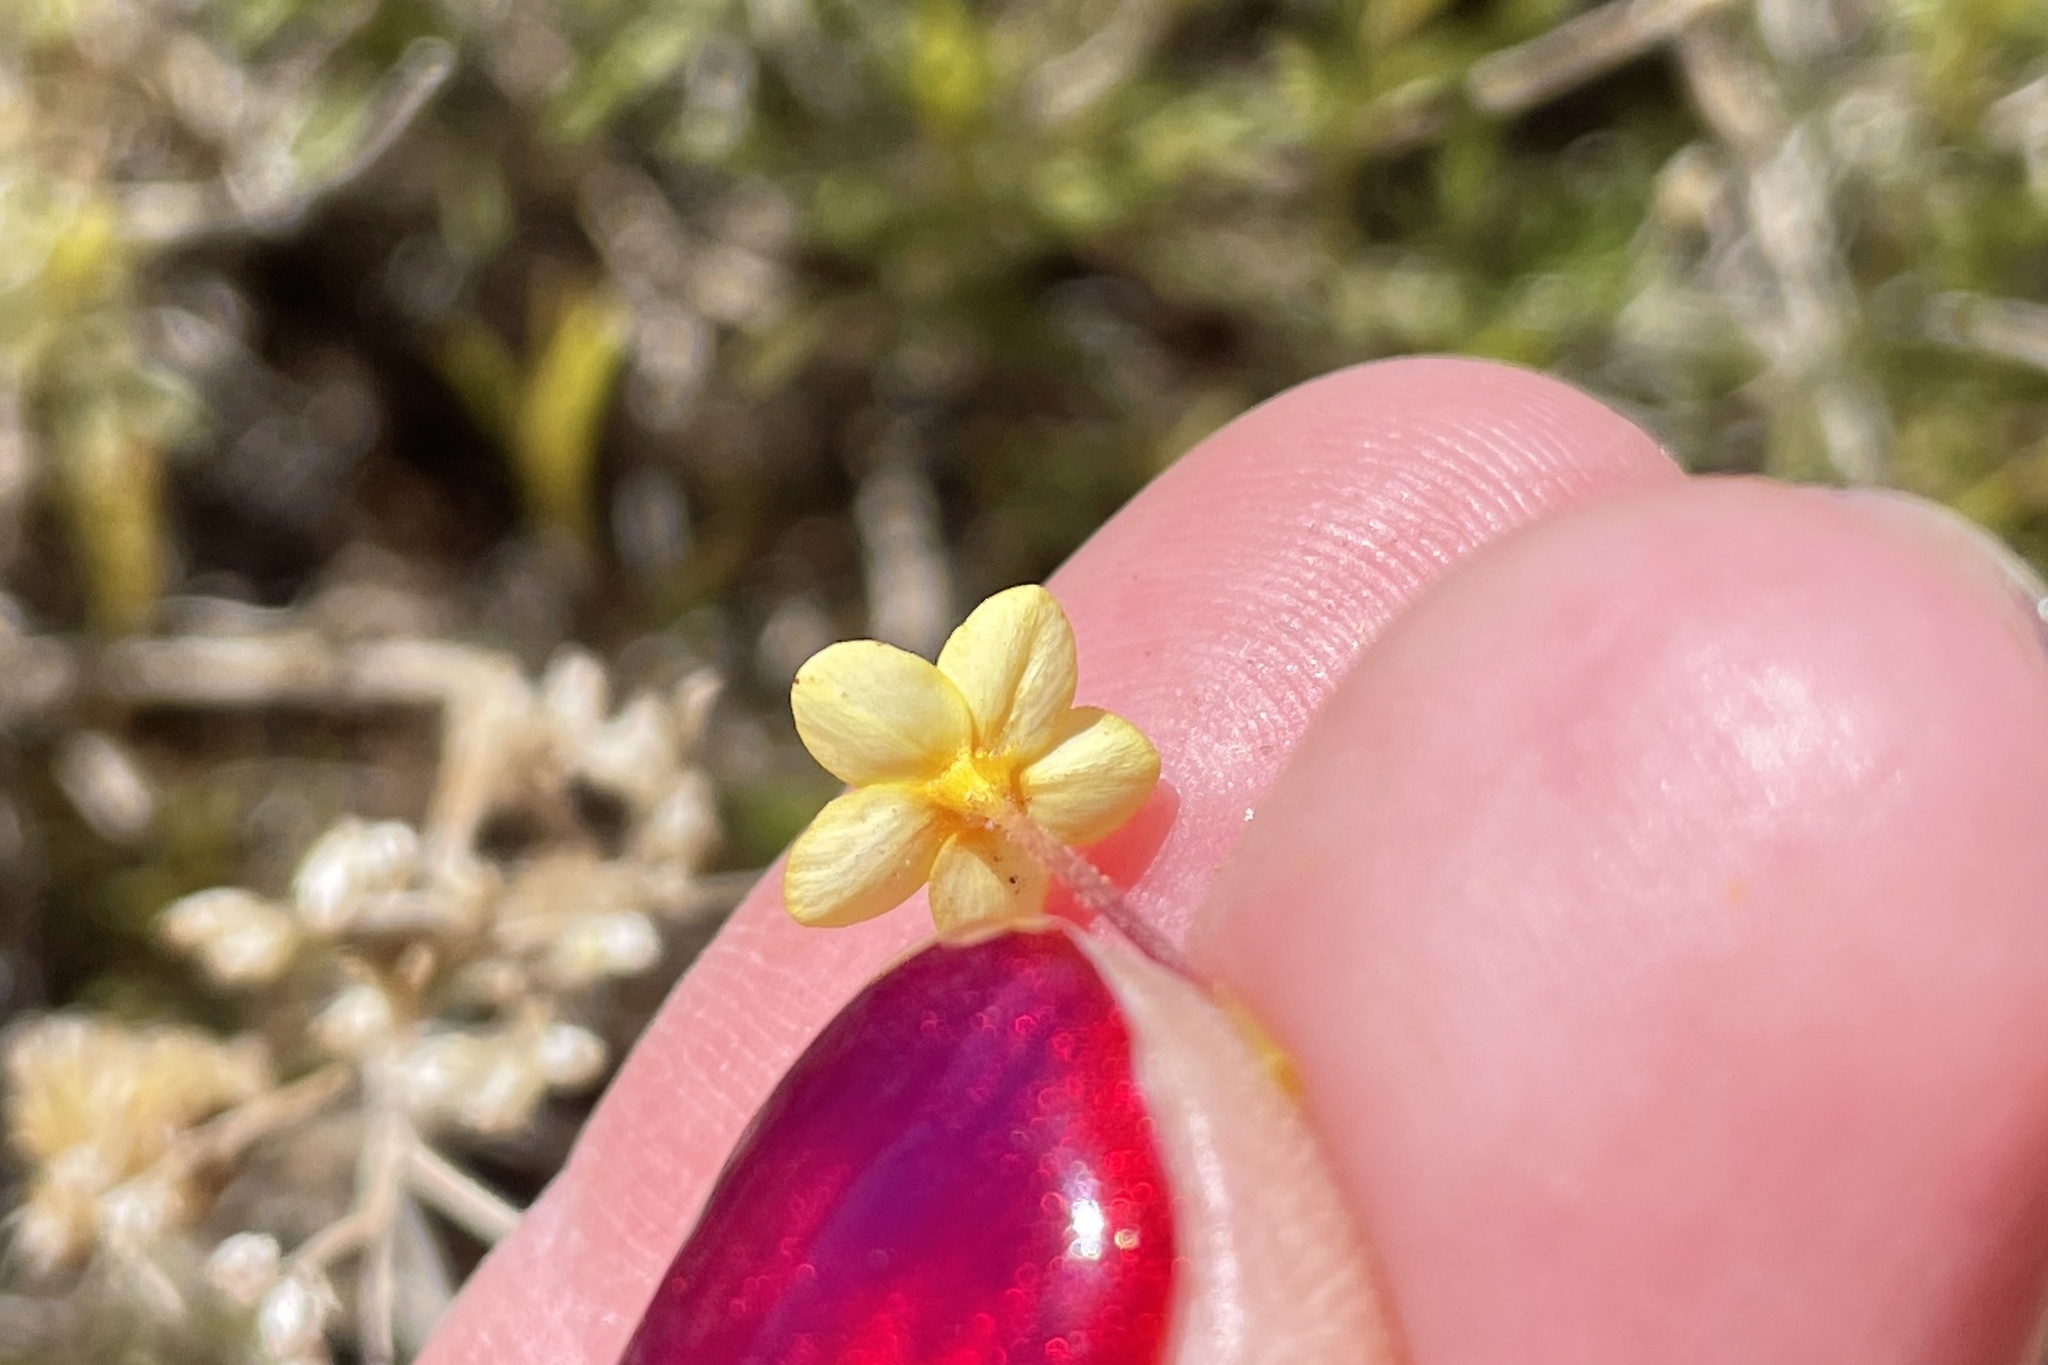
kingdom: Plantae
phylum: Tracheophyta
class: Magnoliopsida
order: Ericales
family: Polemoniaceae
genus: Leptosiphon
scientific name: Leptosiphon parviflorus
